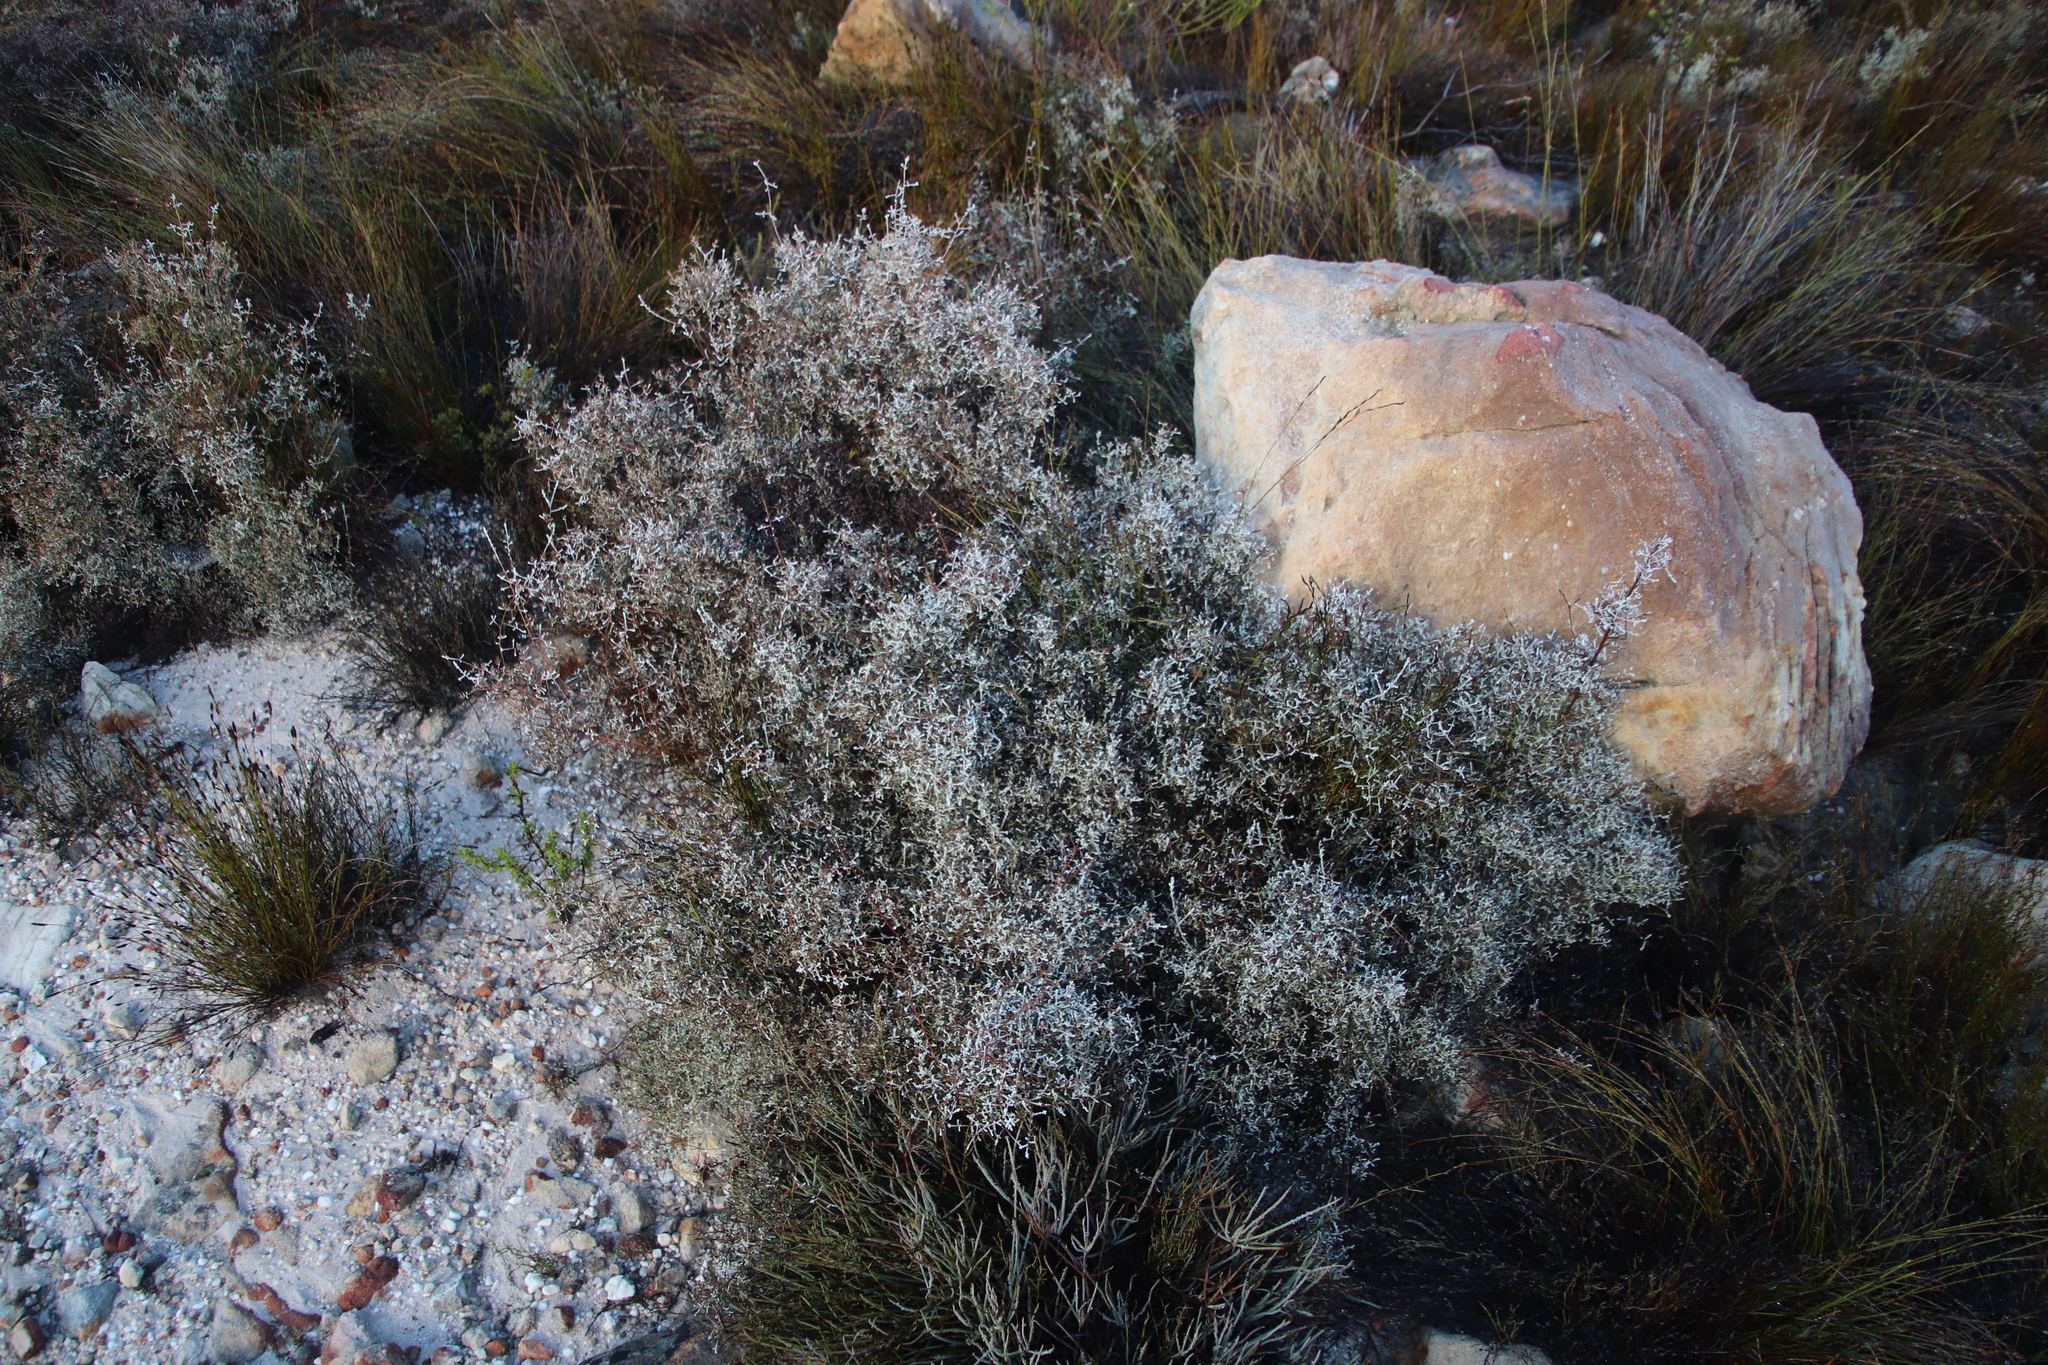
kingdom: Plantae
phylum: Tracheophyta
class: Magnoliopsida
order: Asterales
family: Asteraceae
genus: Seriphium
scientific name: Seriphium plumosum
